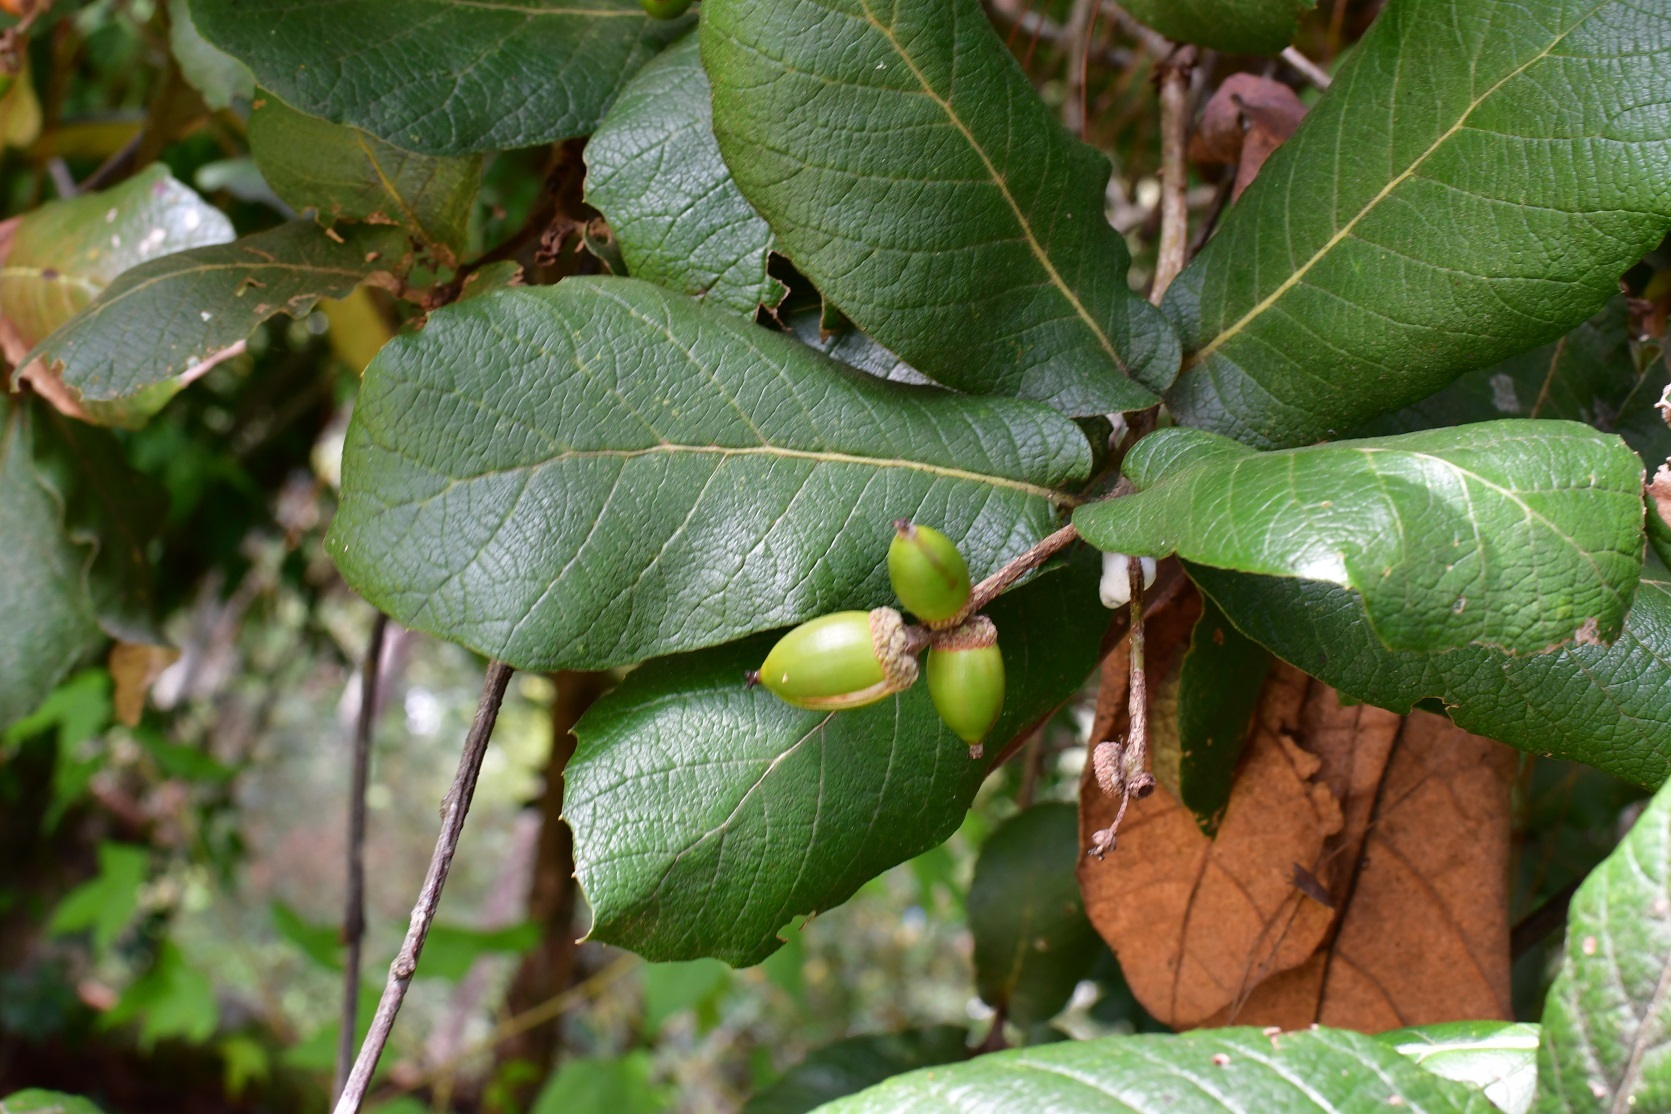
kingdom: Plantae
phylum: Tracheophyta
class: Magnoliopsida
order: Fagales
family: Fagaceae
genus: Quercus
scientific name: Quercus rugosa
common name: Netleaf oak
